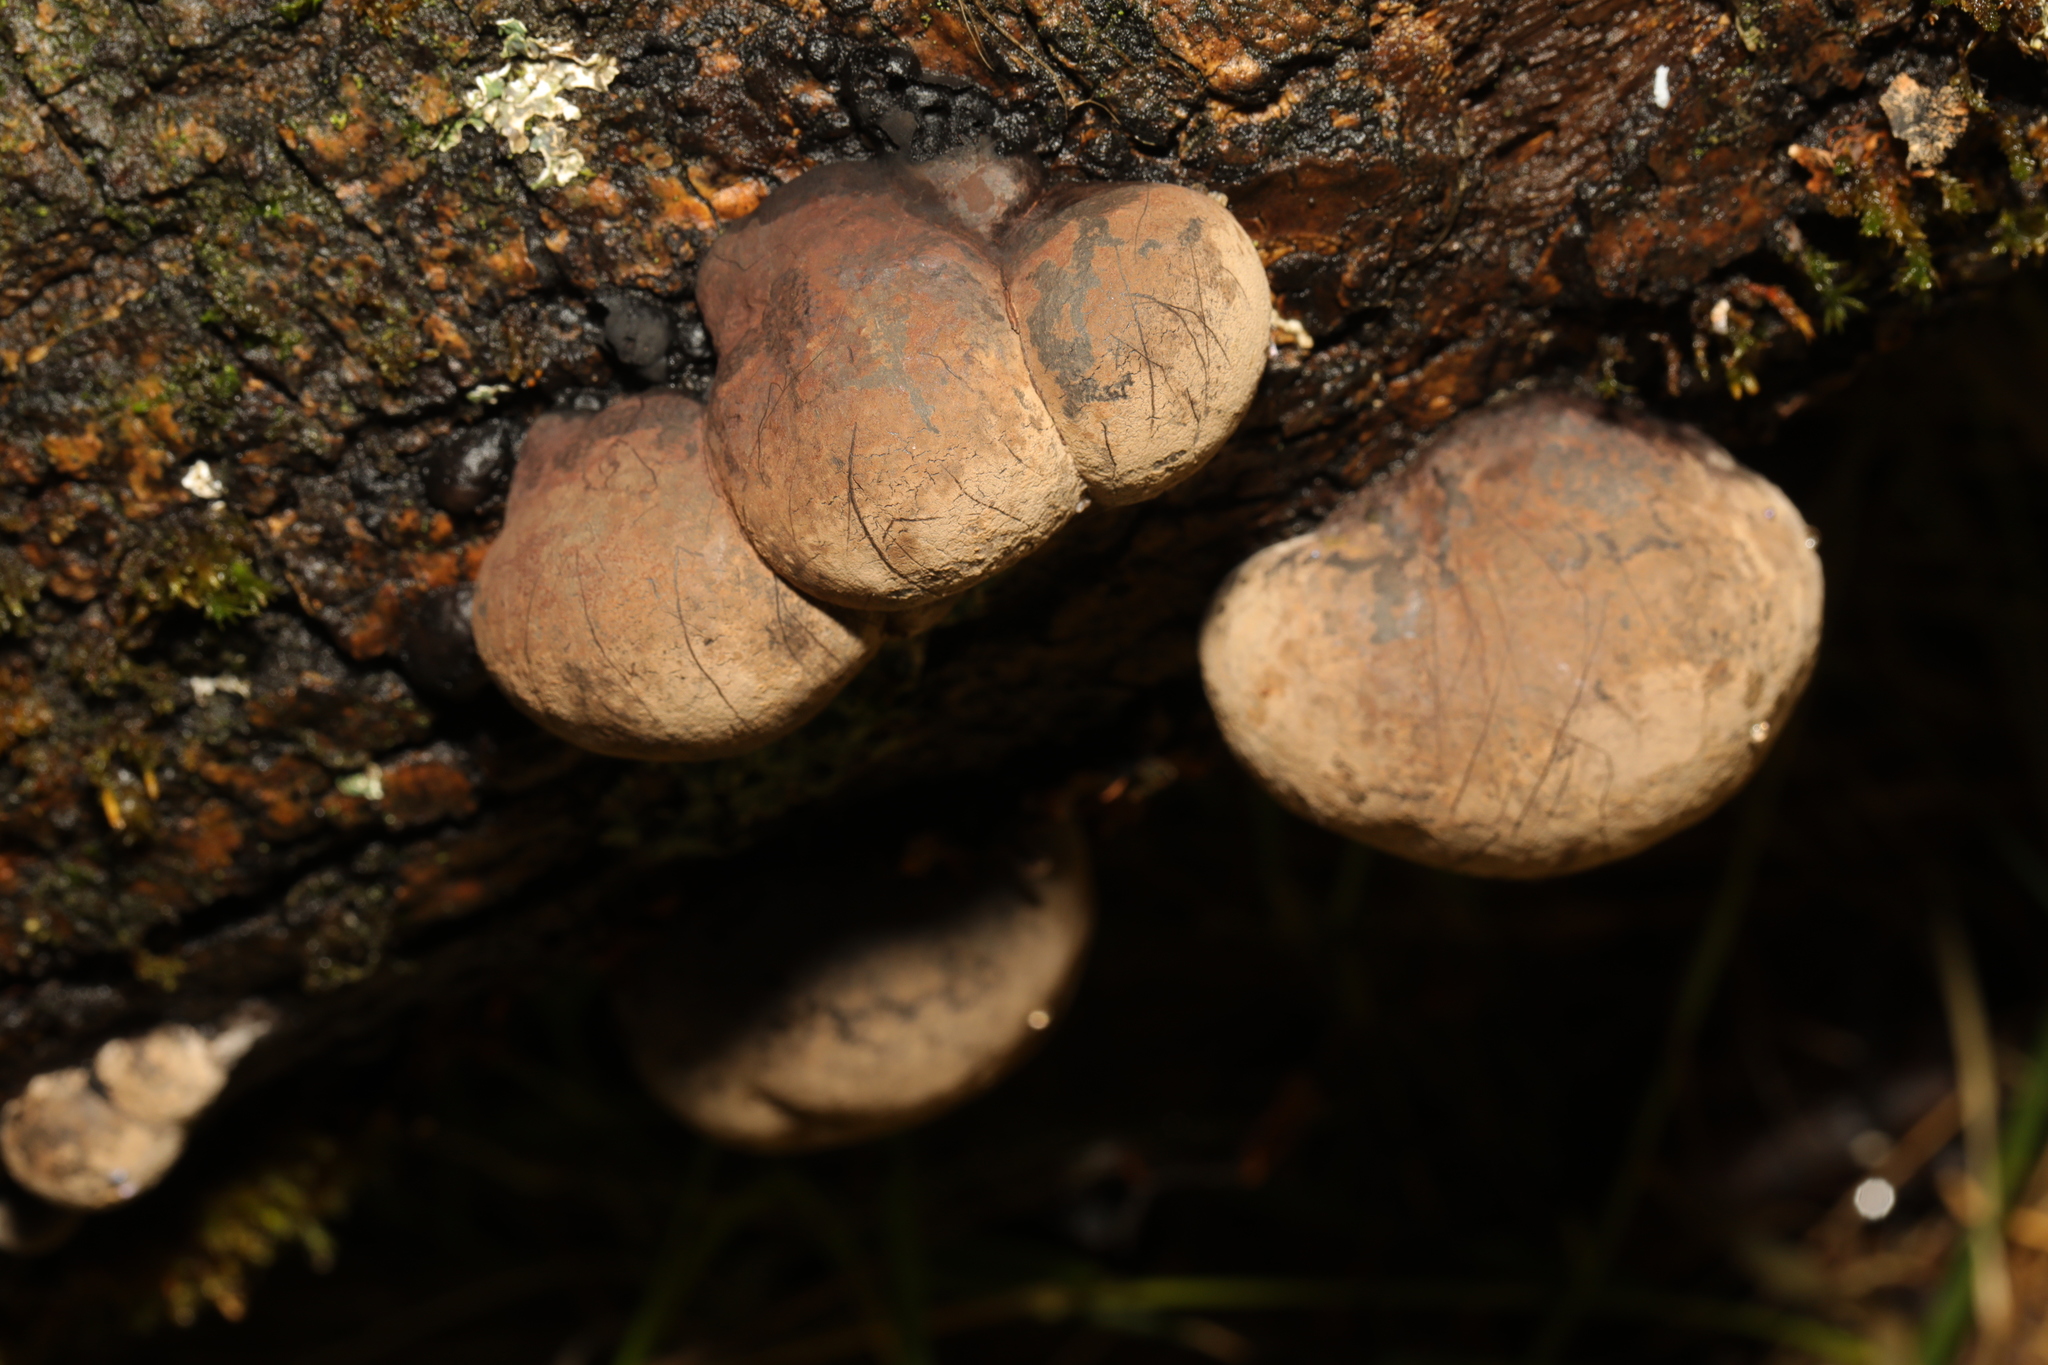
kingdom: Fungi
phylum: Ascomycota
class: Sordariomycetes
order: Xylariales
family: Hypoxylaceae
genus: Daldinia
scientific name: Daldinia concentrica
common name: Cramp balls
